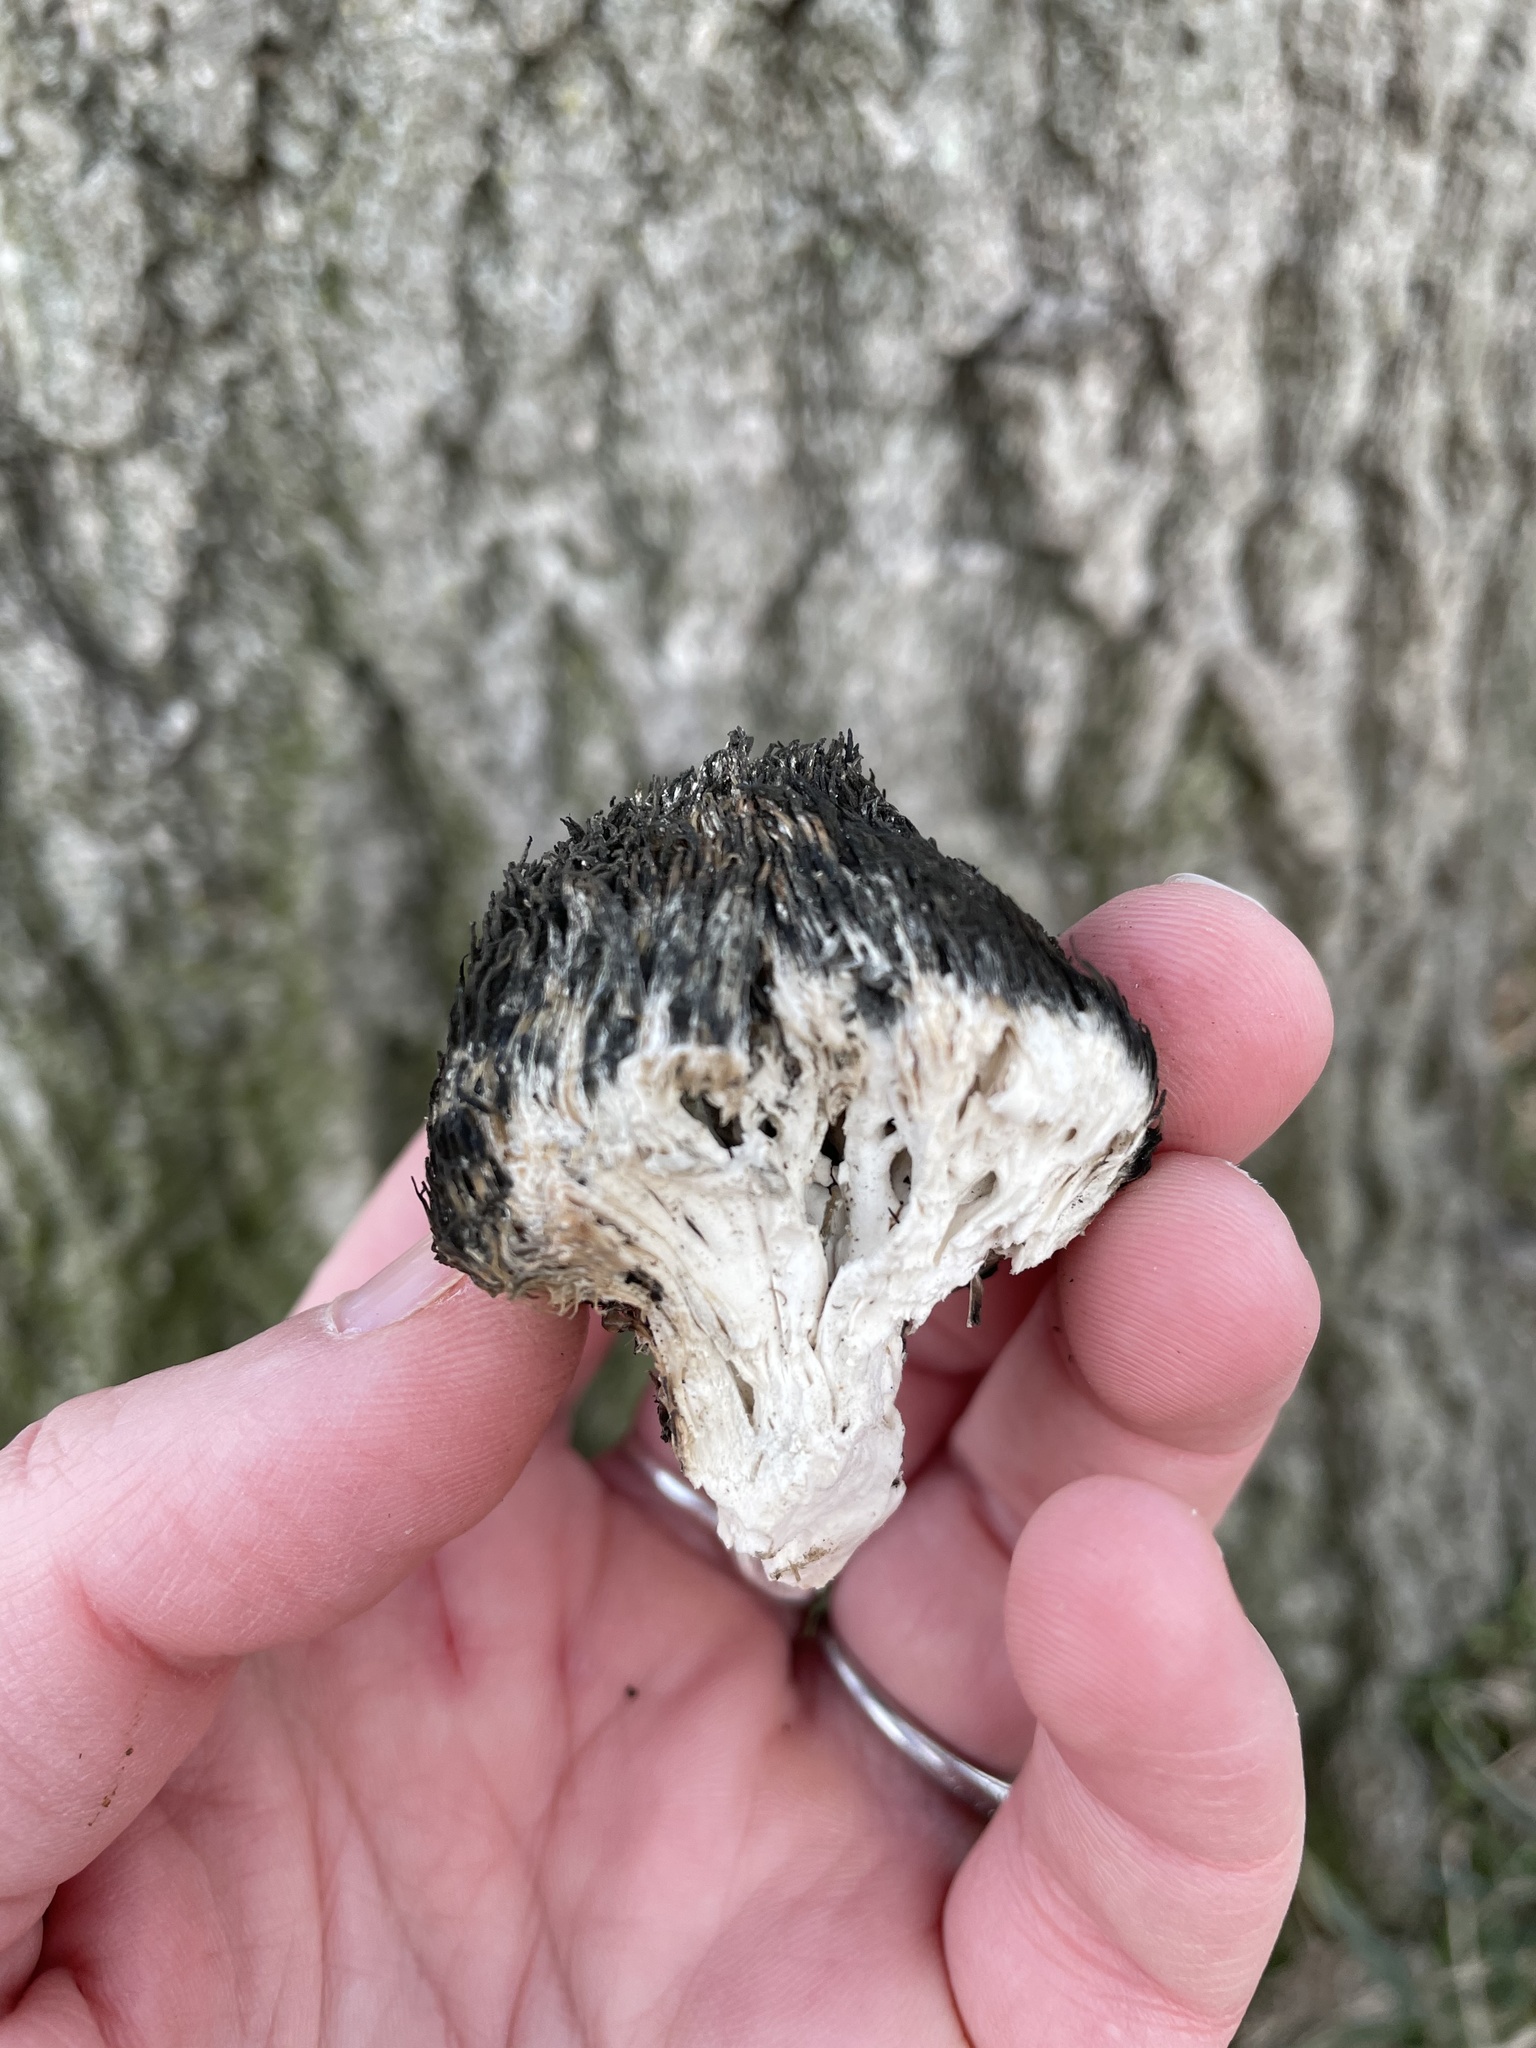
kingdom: Fungi
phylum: Basidiomycota
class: Agaricomycetes
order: Russulales
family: Hericiaceae
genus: Hericium
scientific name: Hericium erinaceus
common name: Bearded tooth
